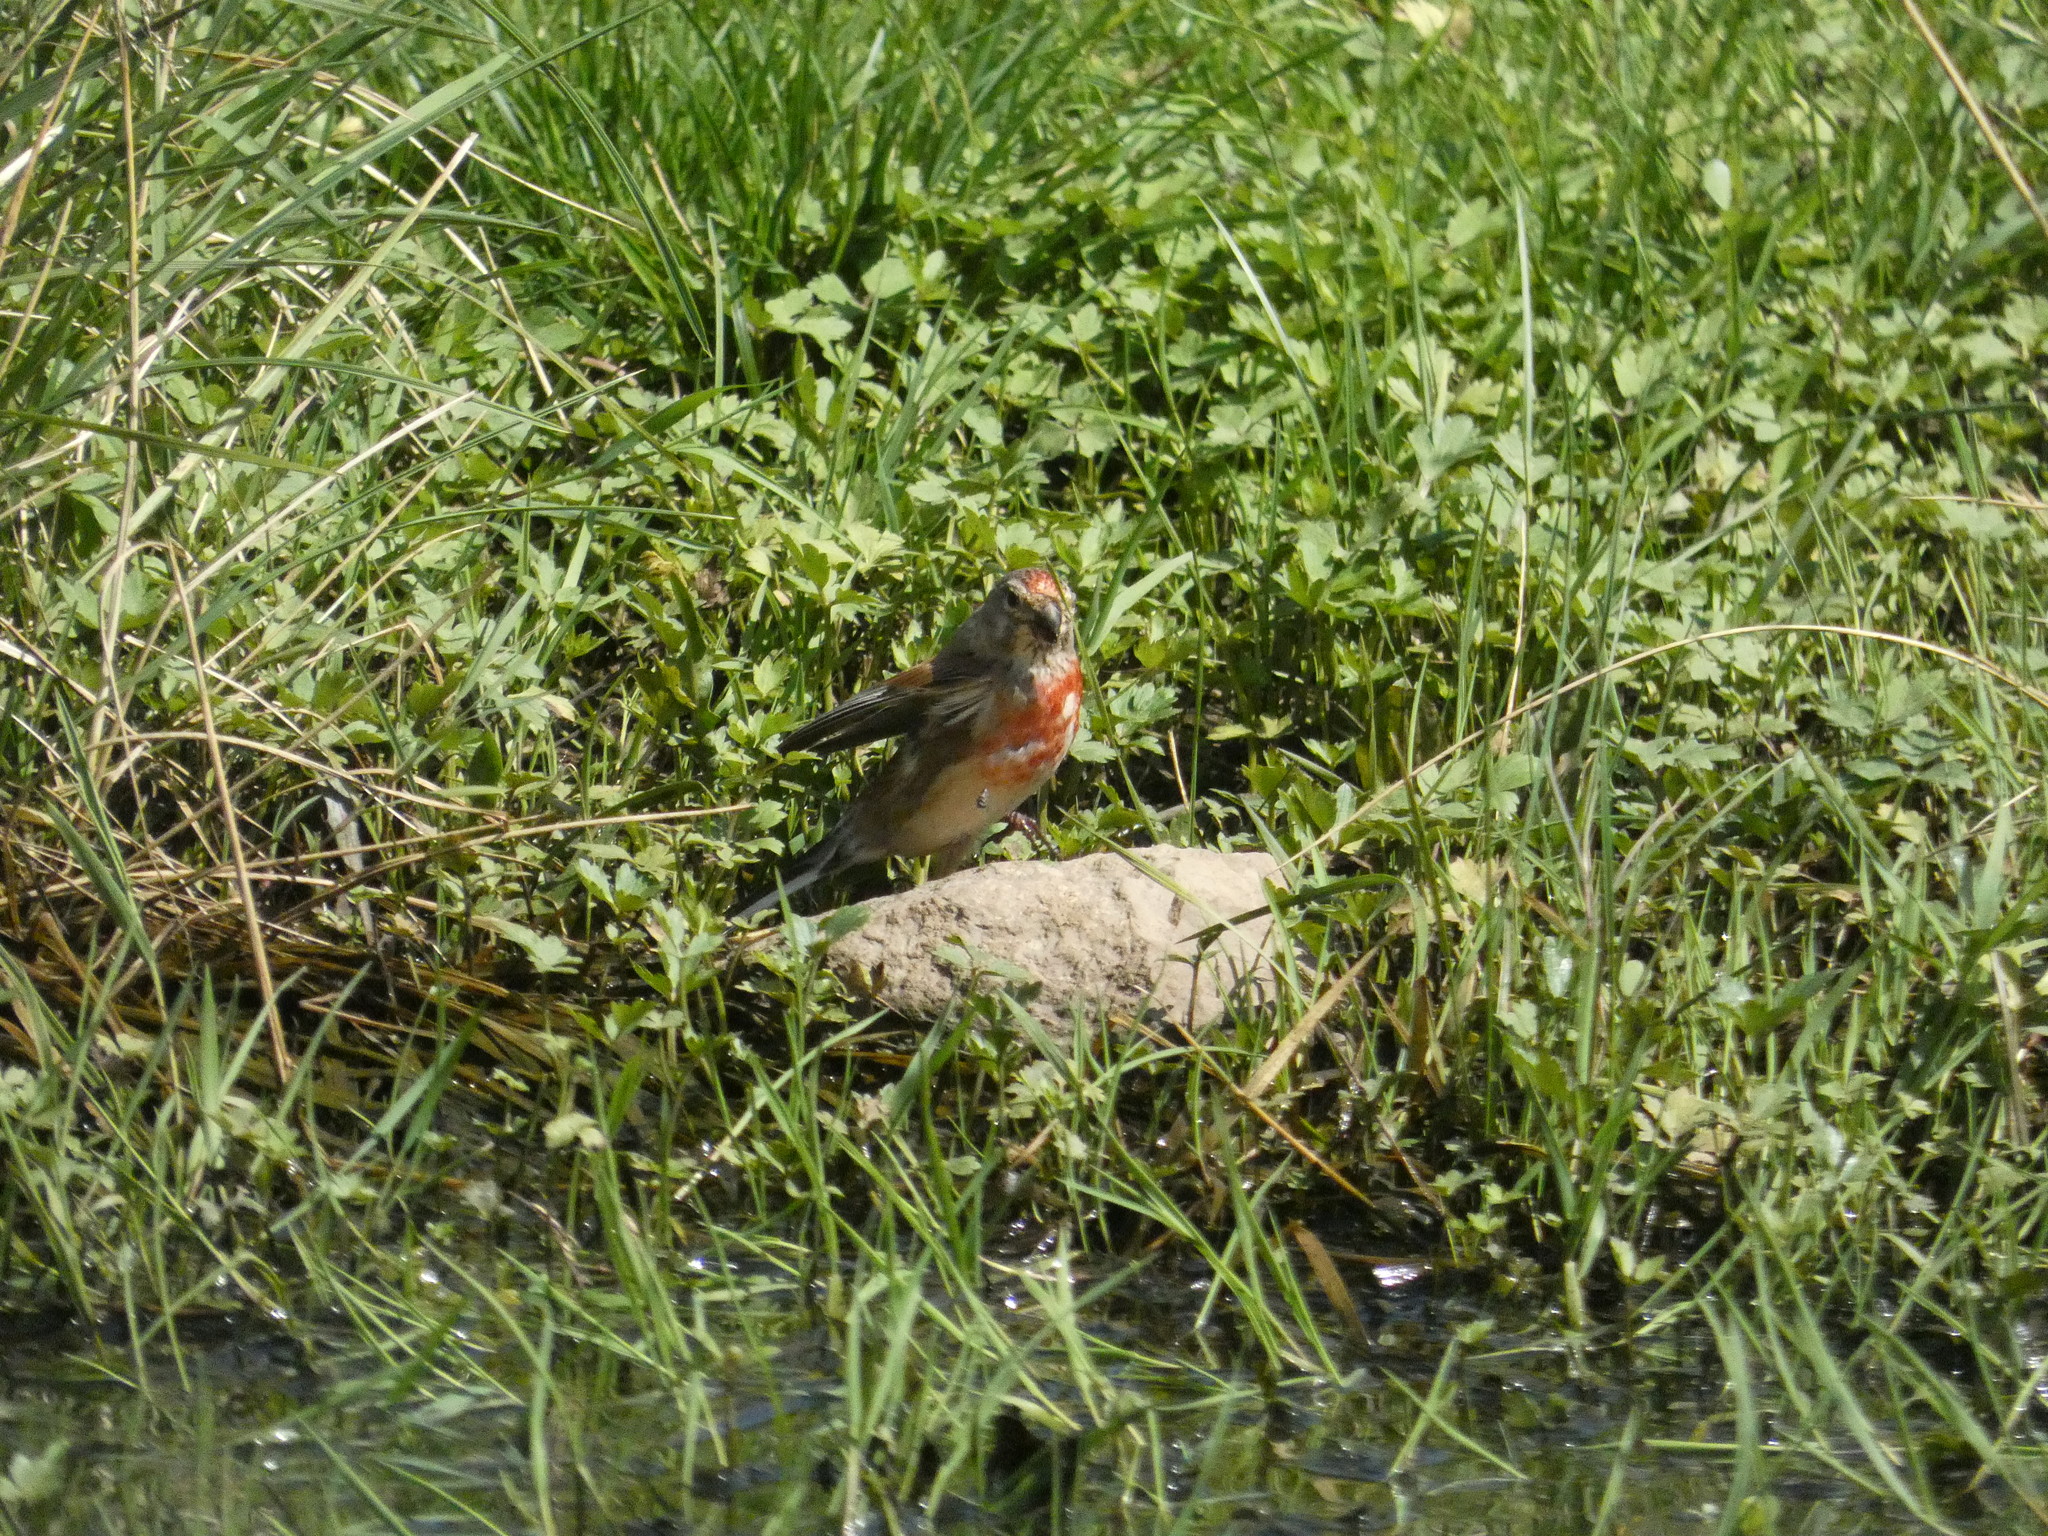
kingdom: Animalia
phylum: Chordata
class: Aves
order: Passeriformes
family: Fringillidae
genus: Linaria
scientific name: Linaria cannabina
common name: Common linnet
